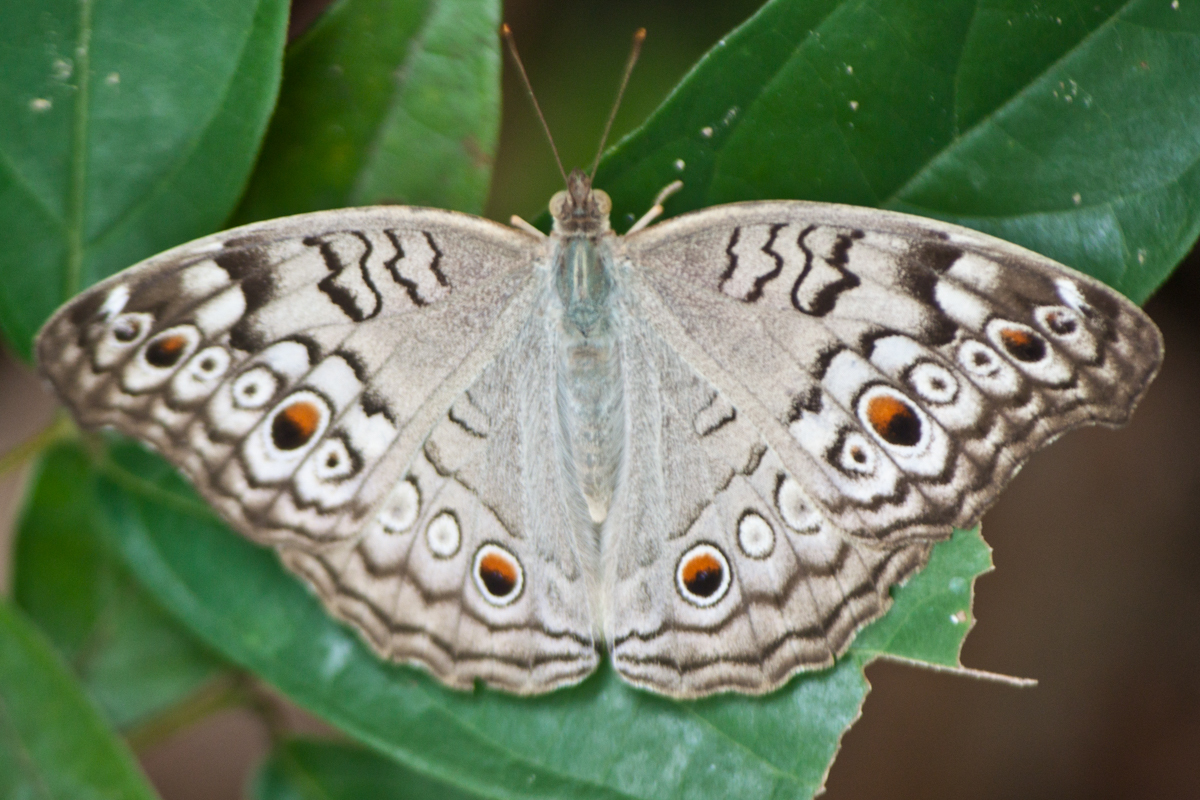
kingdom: Animalia
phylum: Arthropoda
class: Insecta
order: Lepidoptera
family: Nymphalidae
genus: Junonia
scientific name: Junonia atlites
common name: Grey pansy
